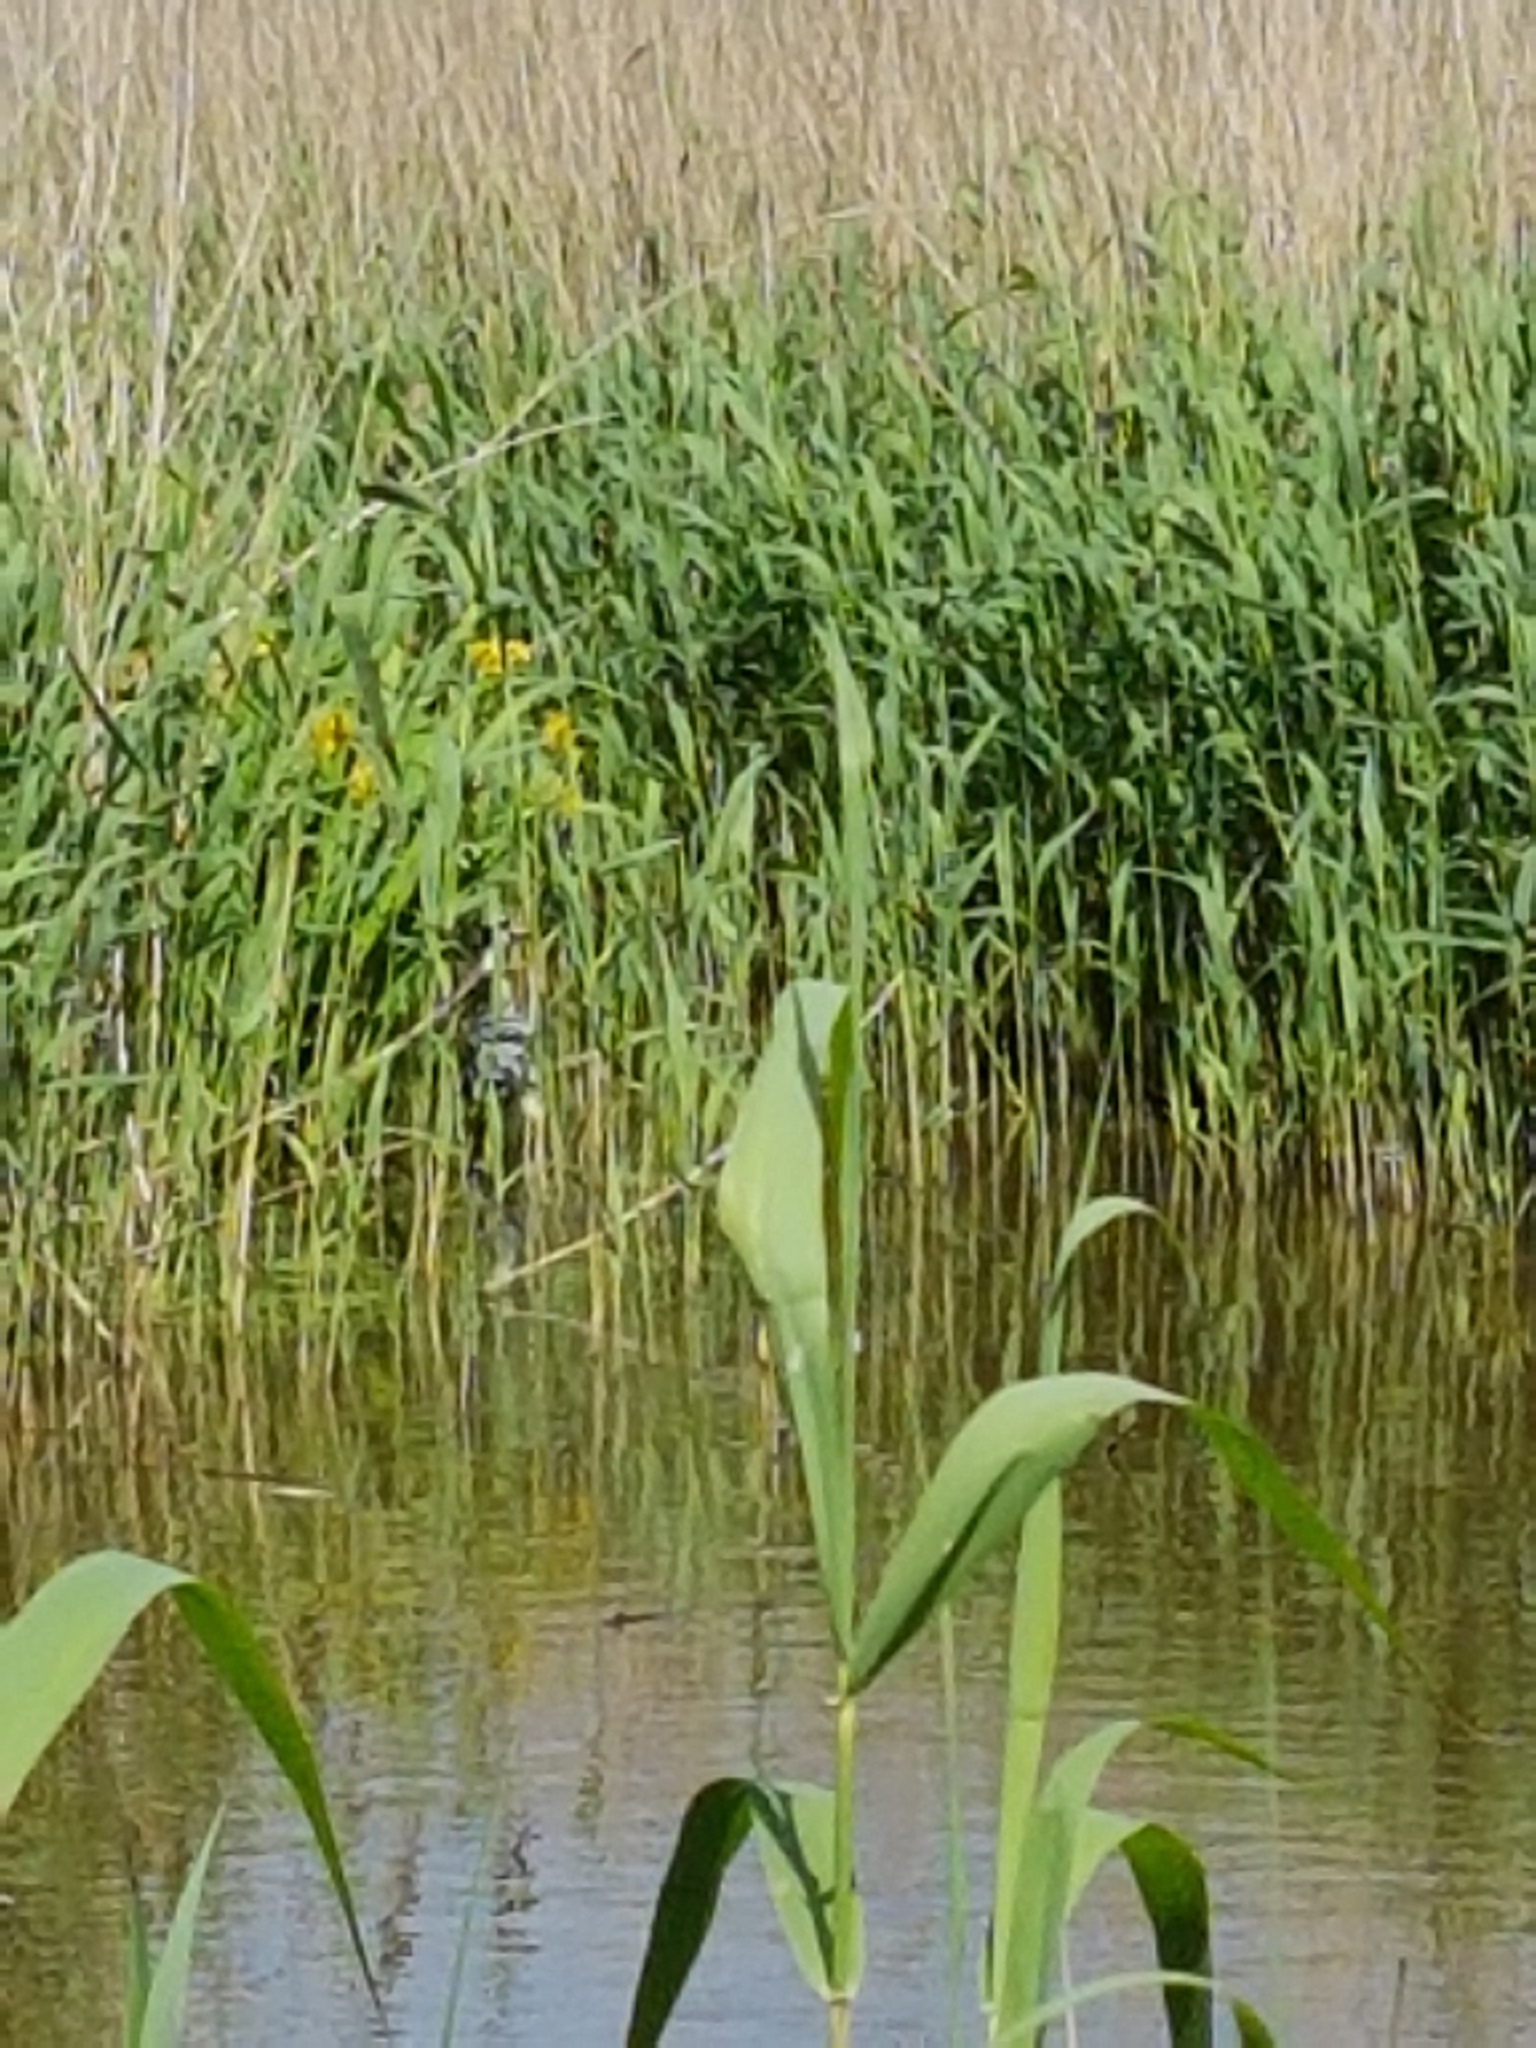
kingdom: Plantae
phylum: Tracheophyta
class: Liliopsida
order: Poales
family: Poaceae
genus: Phragmites
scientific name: Phragmites australis
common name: Common reed
